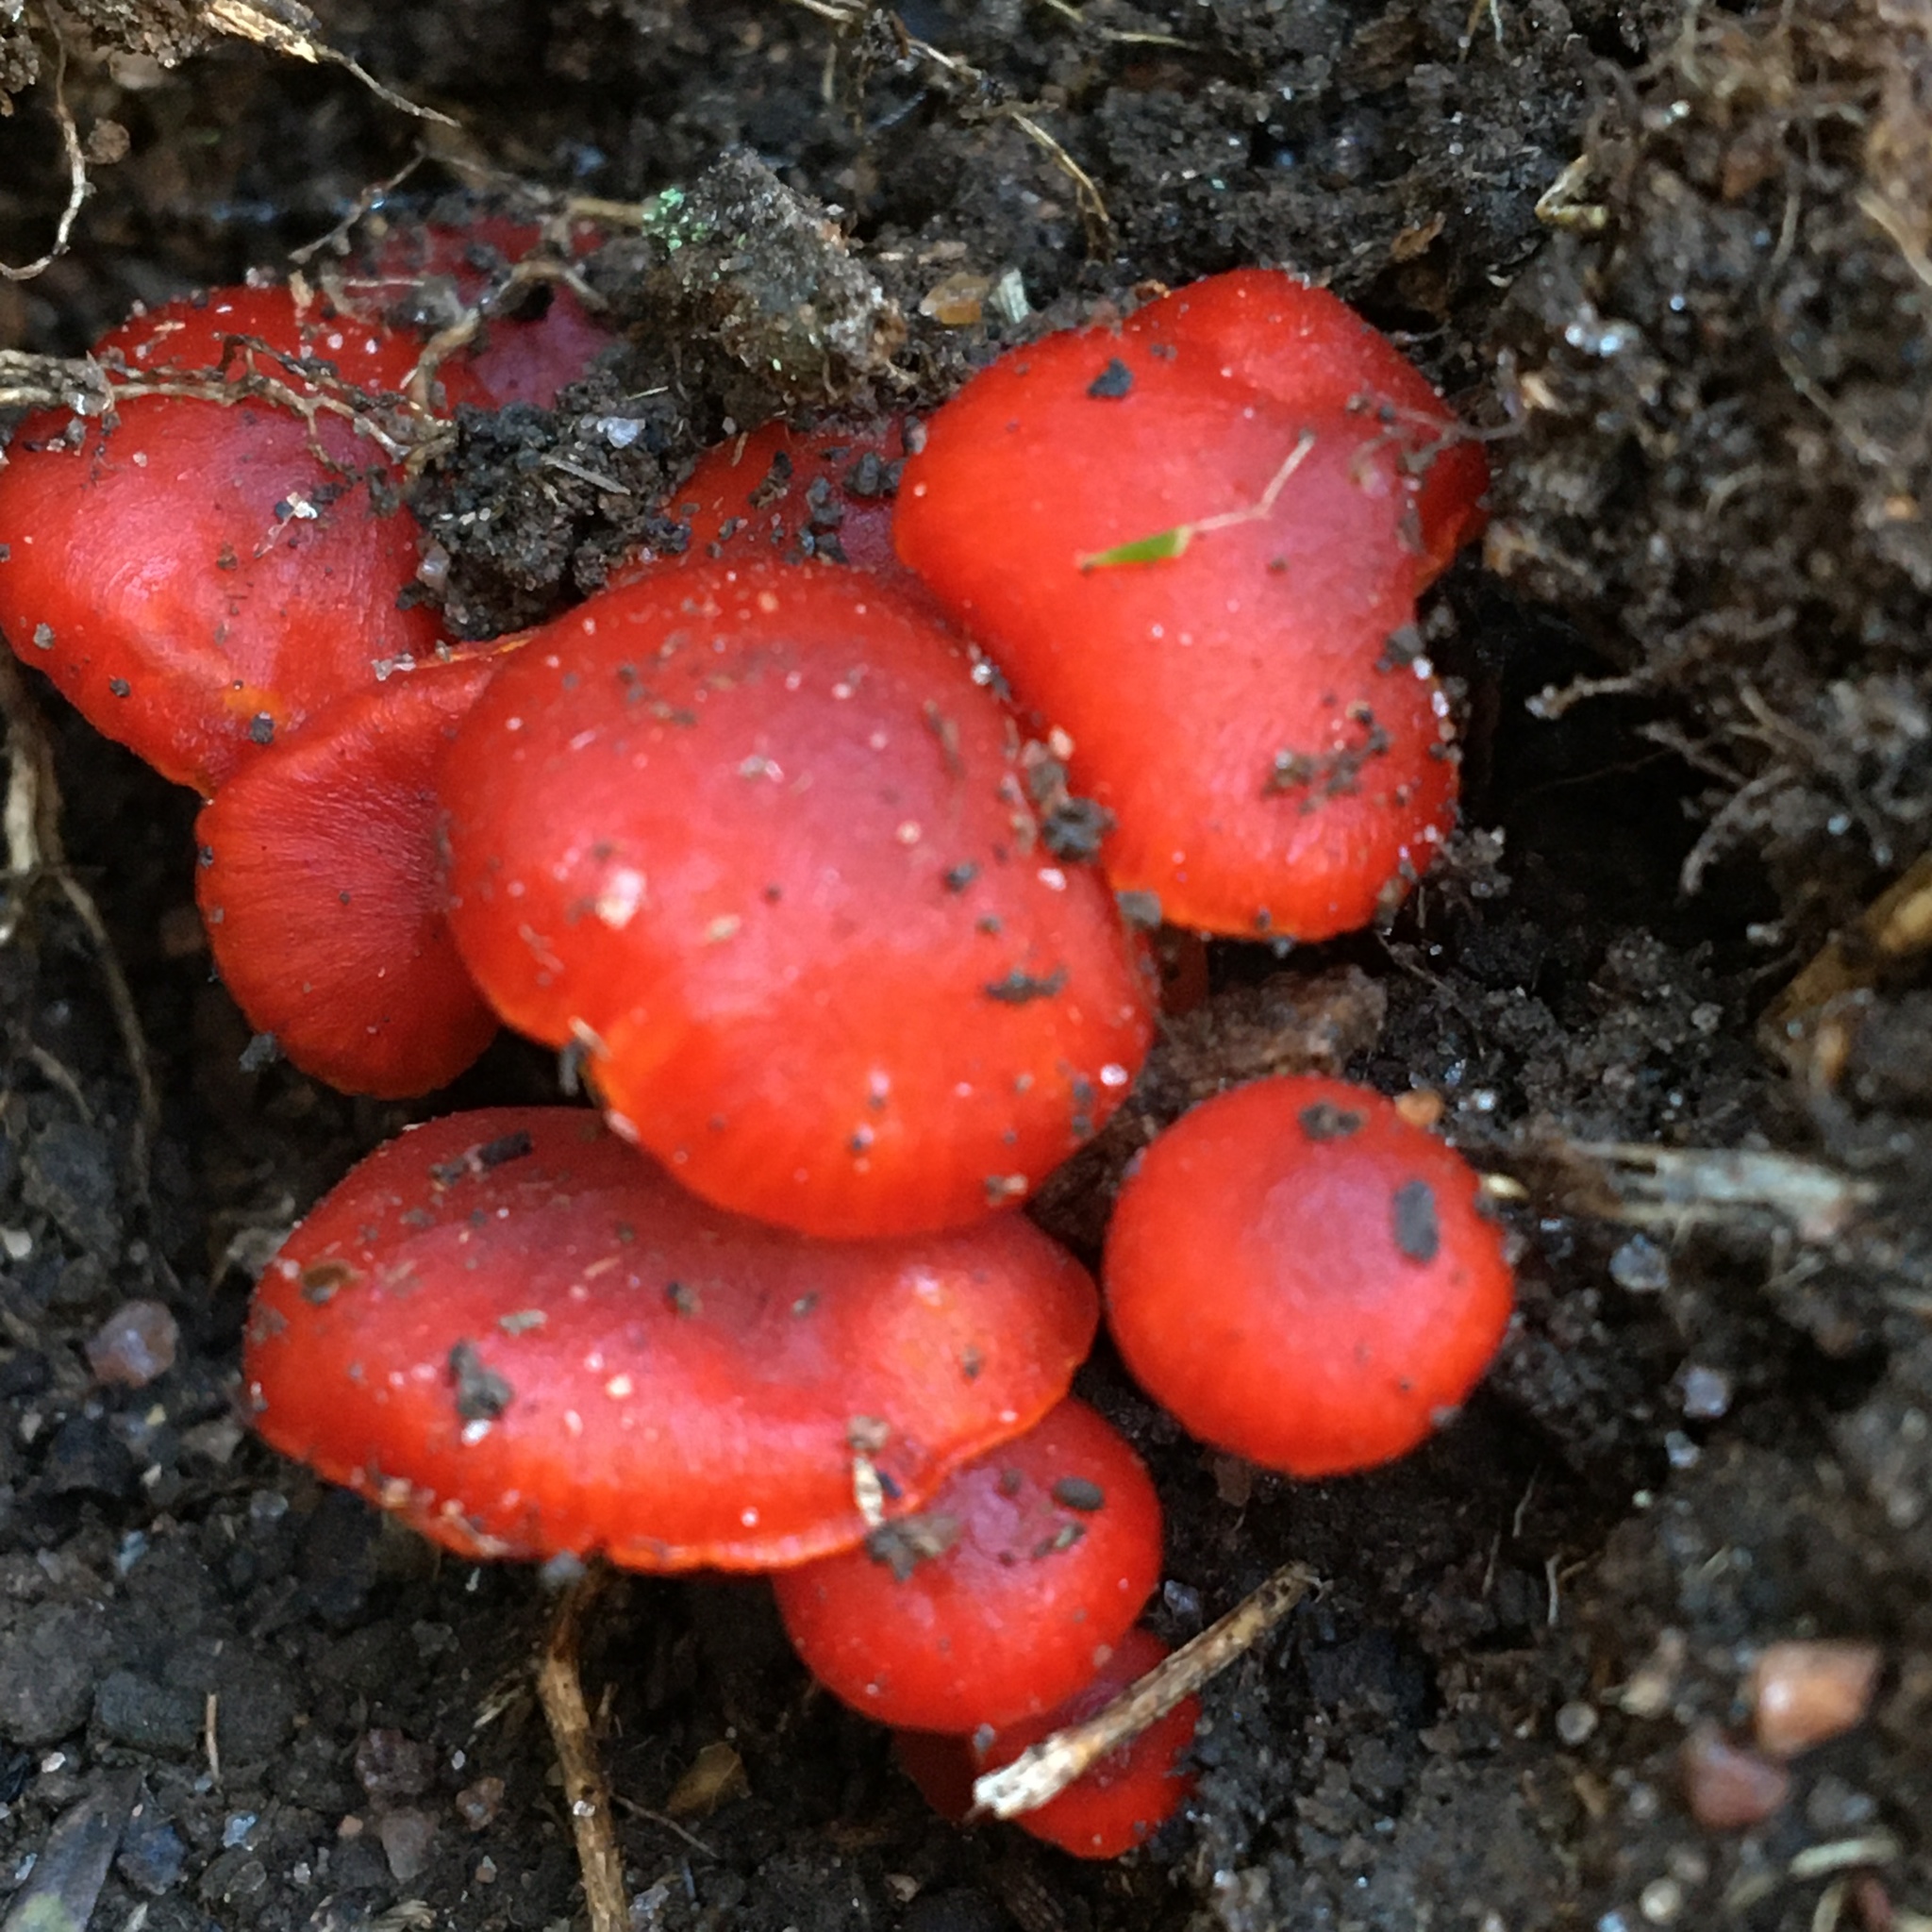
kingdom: Fungi
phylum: Basidiomycota
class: Agaricomycetes
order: Agaricales
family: Hygrophoraceae
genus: Hygrocybe
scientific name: Hygrocybe miniata
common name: Vermilion waxcap
